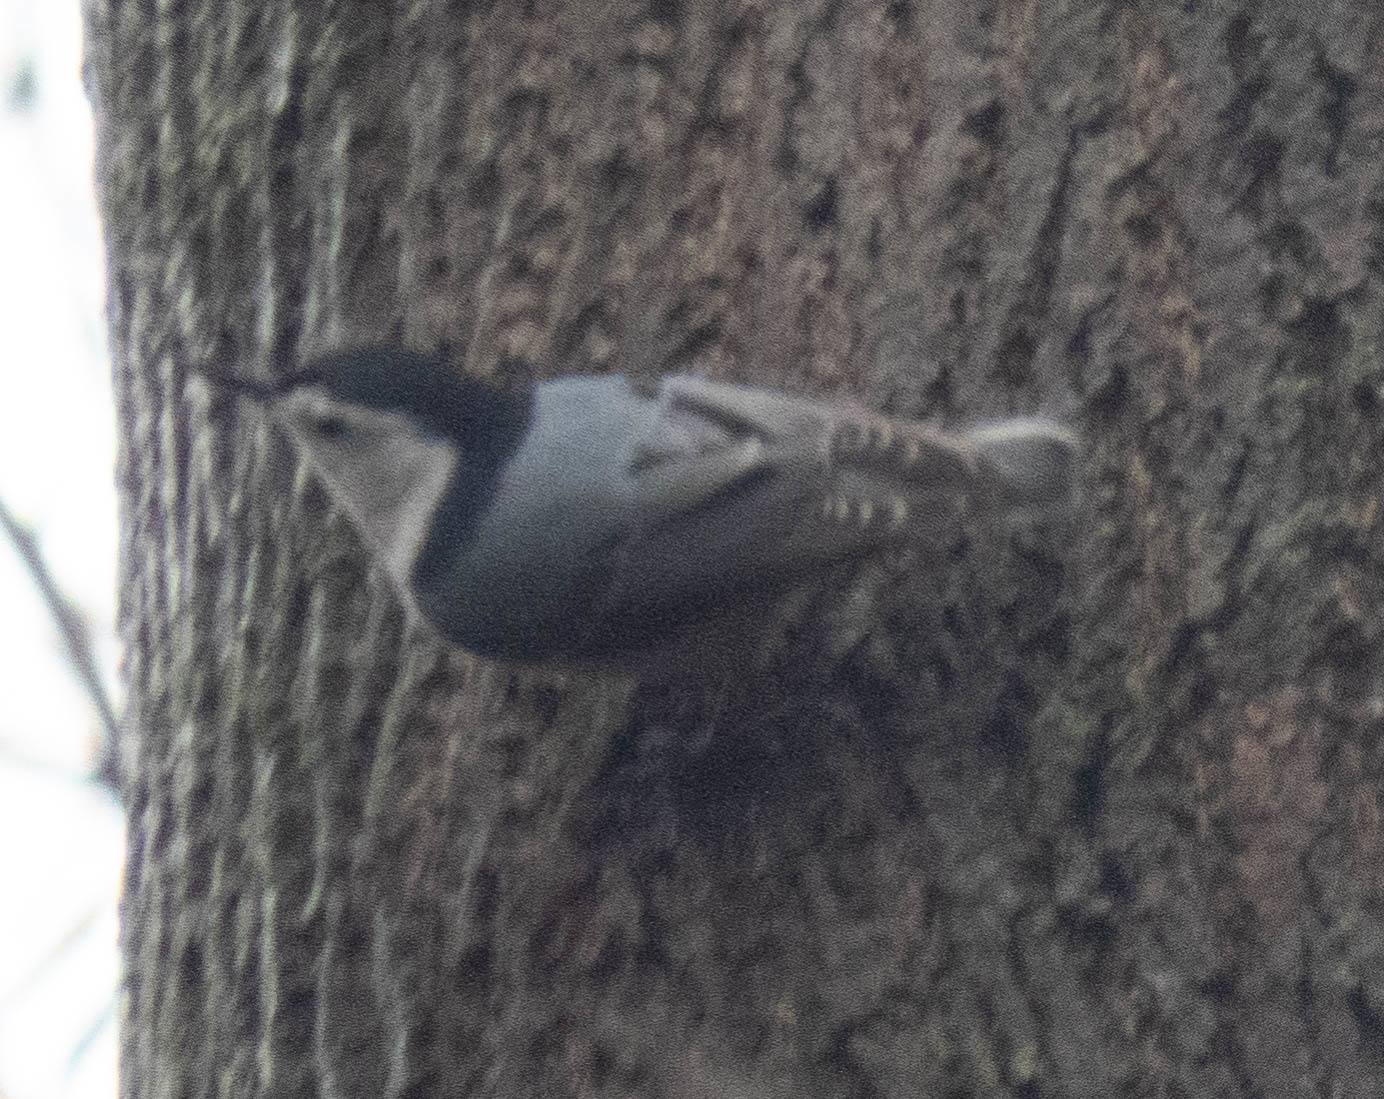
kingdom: Animalia
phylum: Chordata
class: Aves
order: Passeriformes
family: Sittidae
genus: Sitta
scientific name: Sitta carolinensis
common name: White-breasted nuthatch
